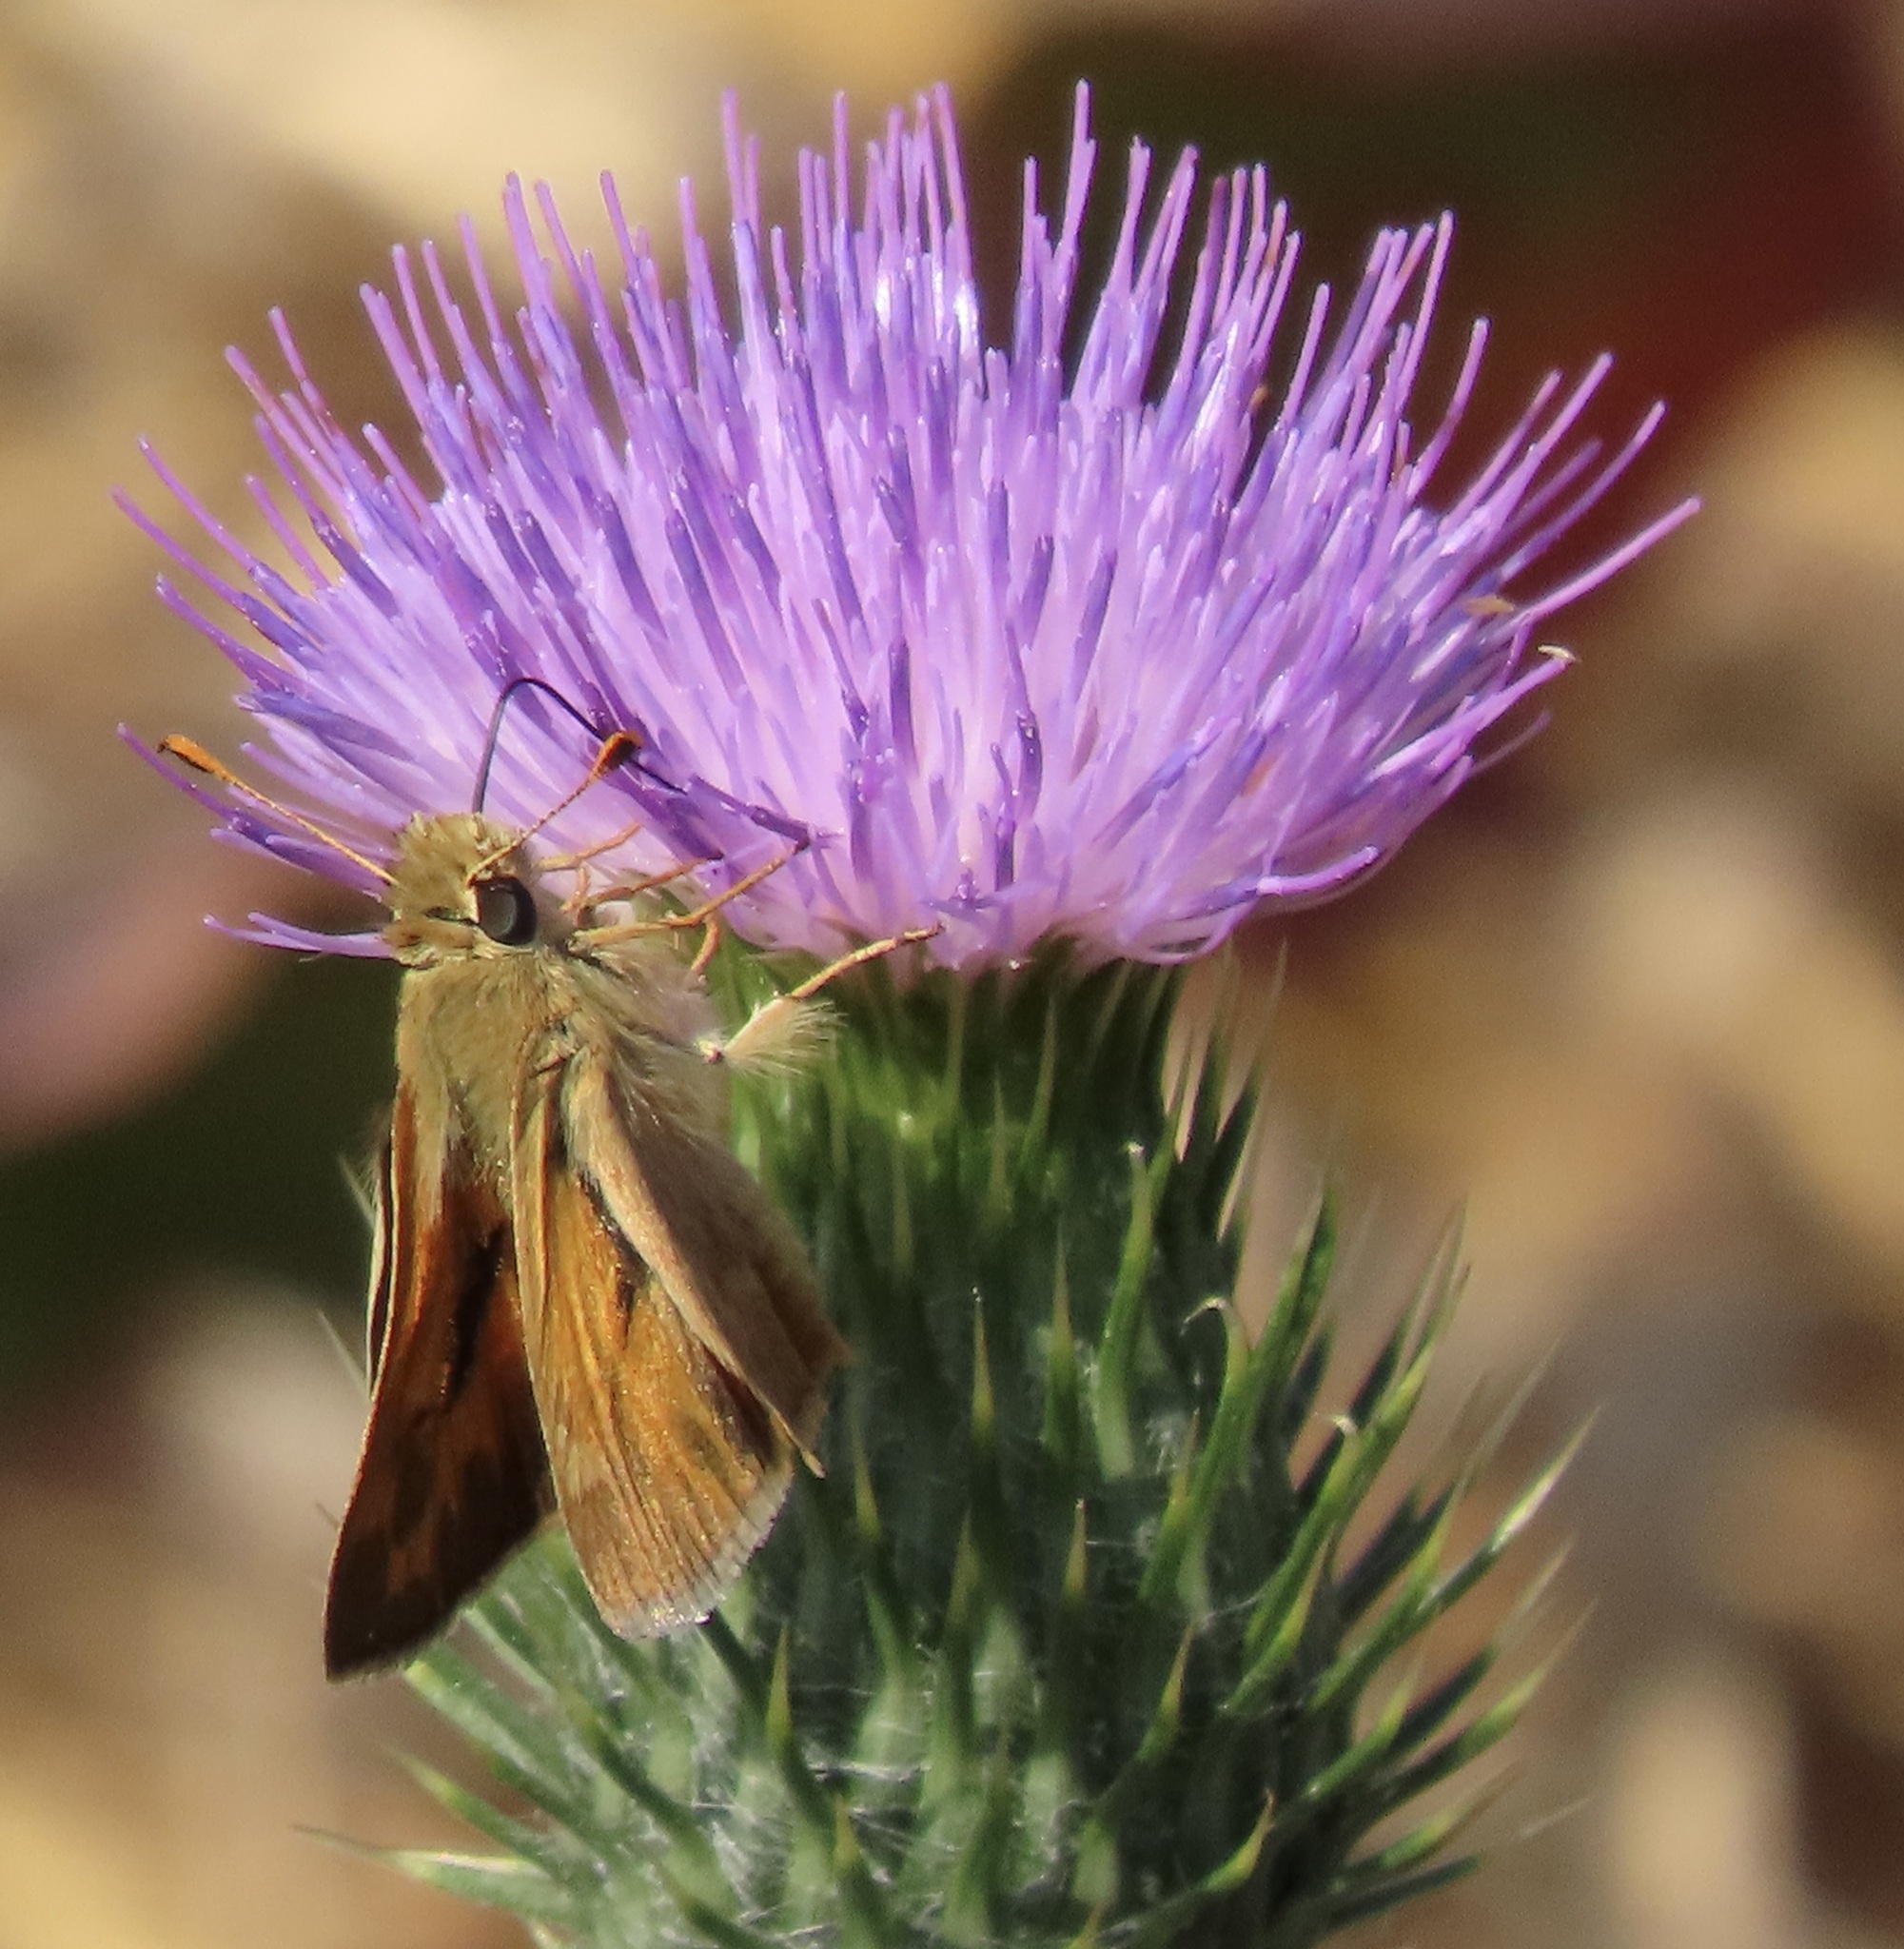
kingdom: Animalia
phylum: Arthropoda
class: Insecta
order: Lepidoptera
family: Hesperiidae
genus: Ochlodes
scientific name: Ochlodes sylvanoides
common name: Woodland skipper
